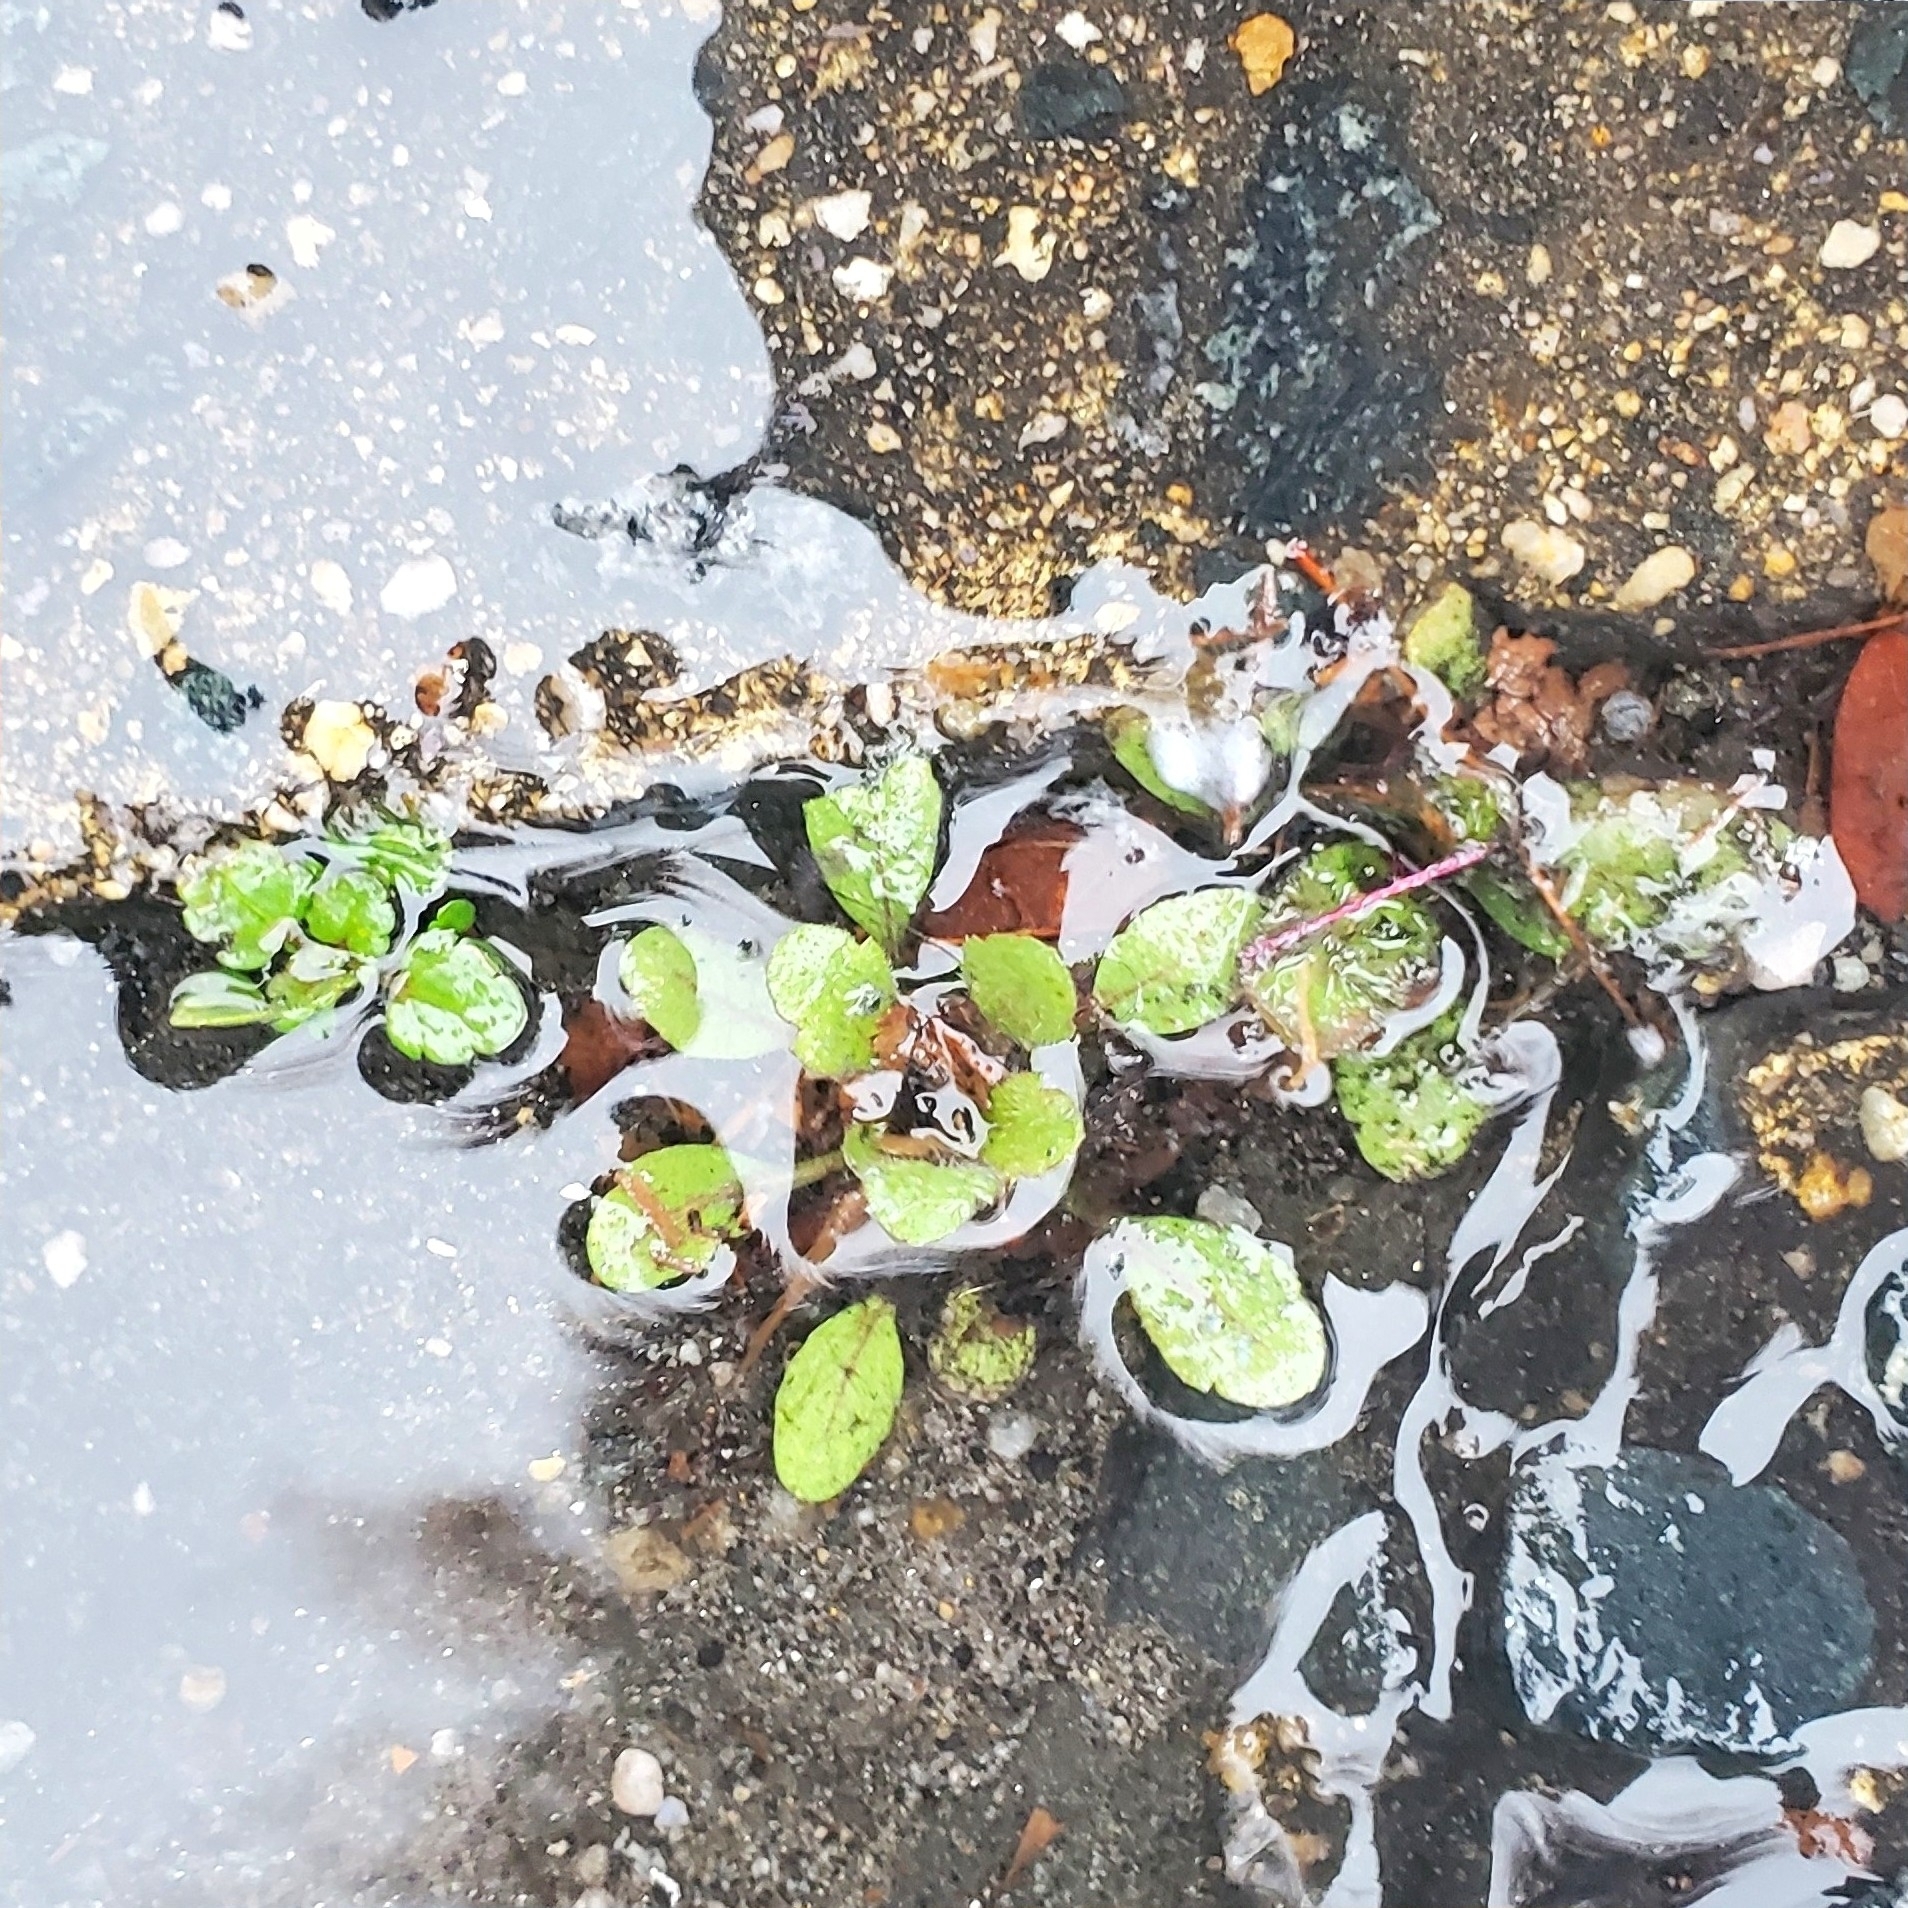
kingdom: Plantae
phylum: Tracheophyta
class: Magnoliopsida
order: Myrtales
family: Onagraceae
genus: Ludwigia
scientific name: Ludwigia peploides
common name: Floating primrose-willow
